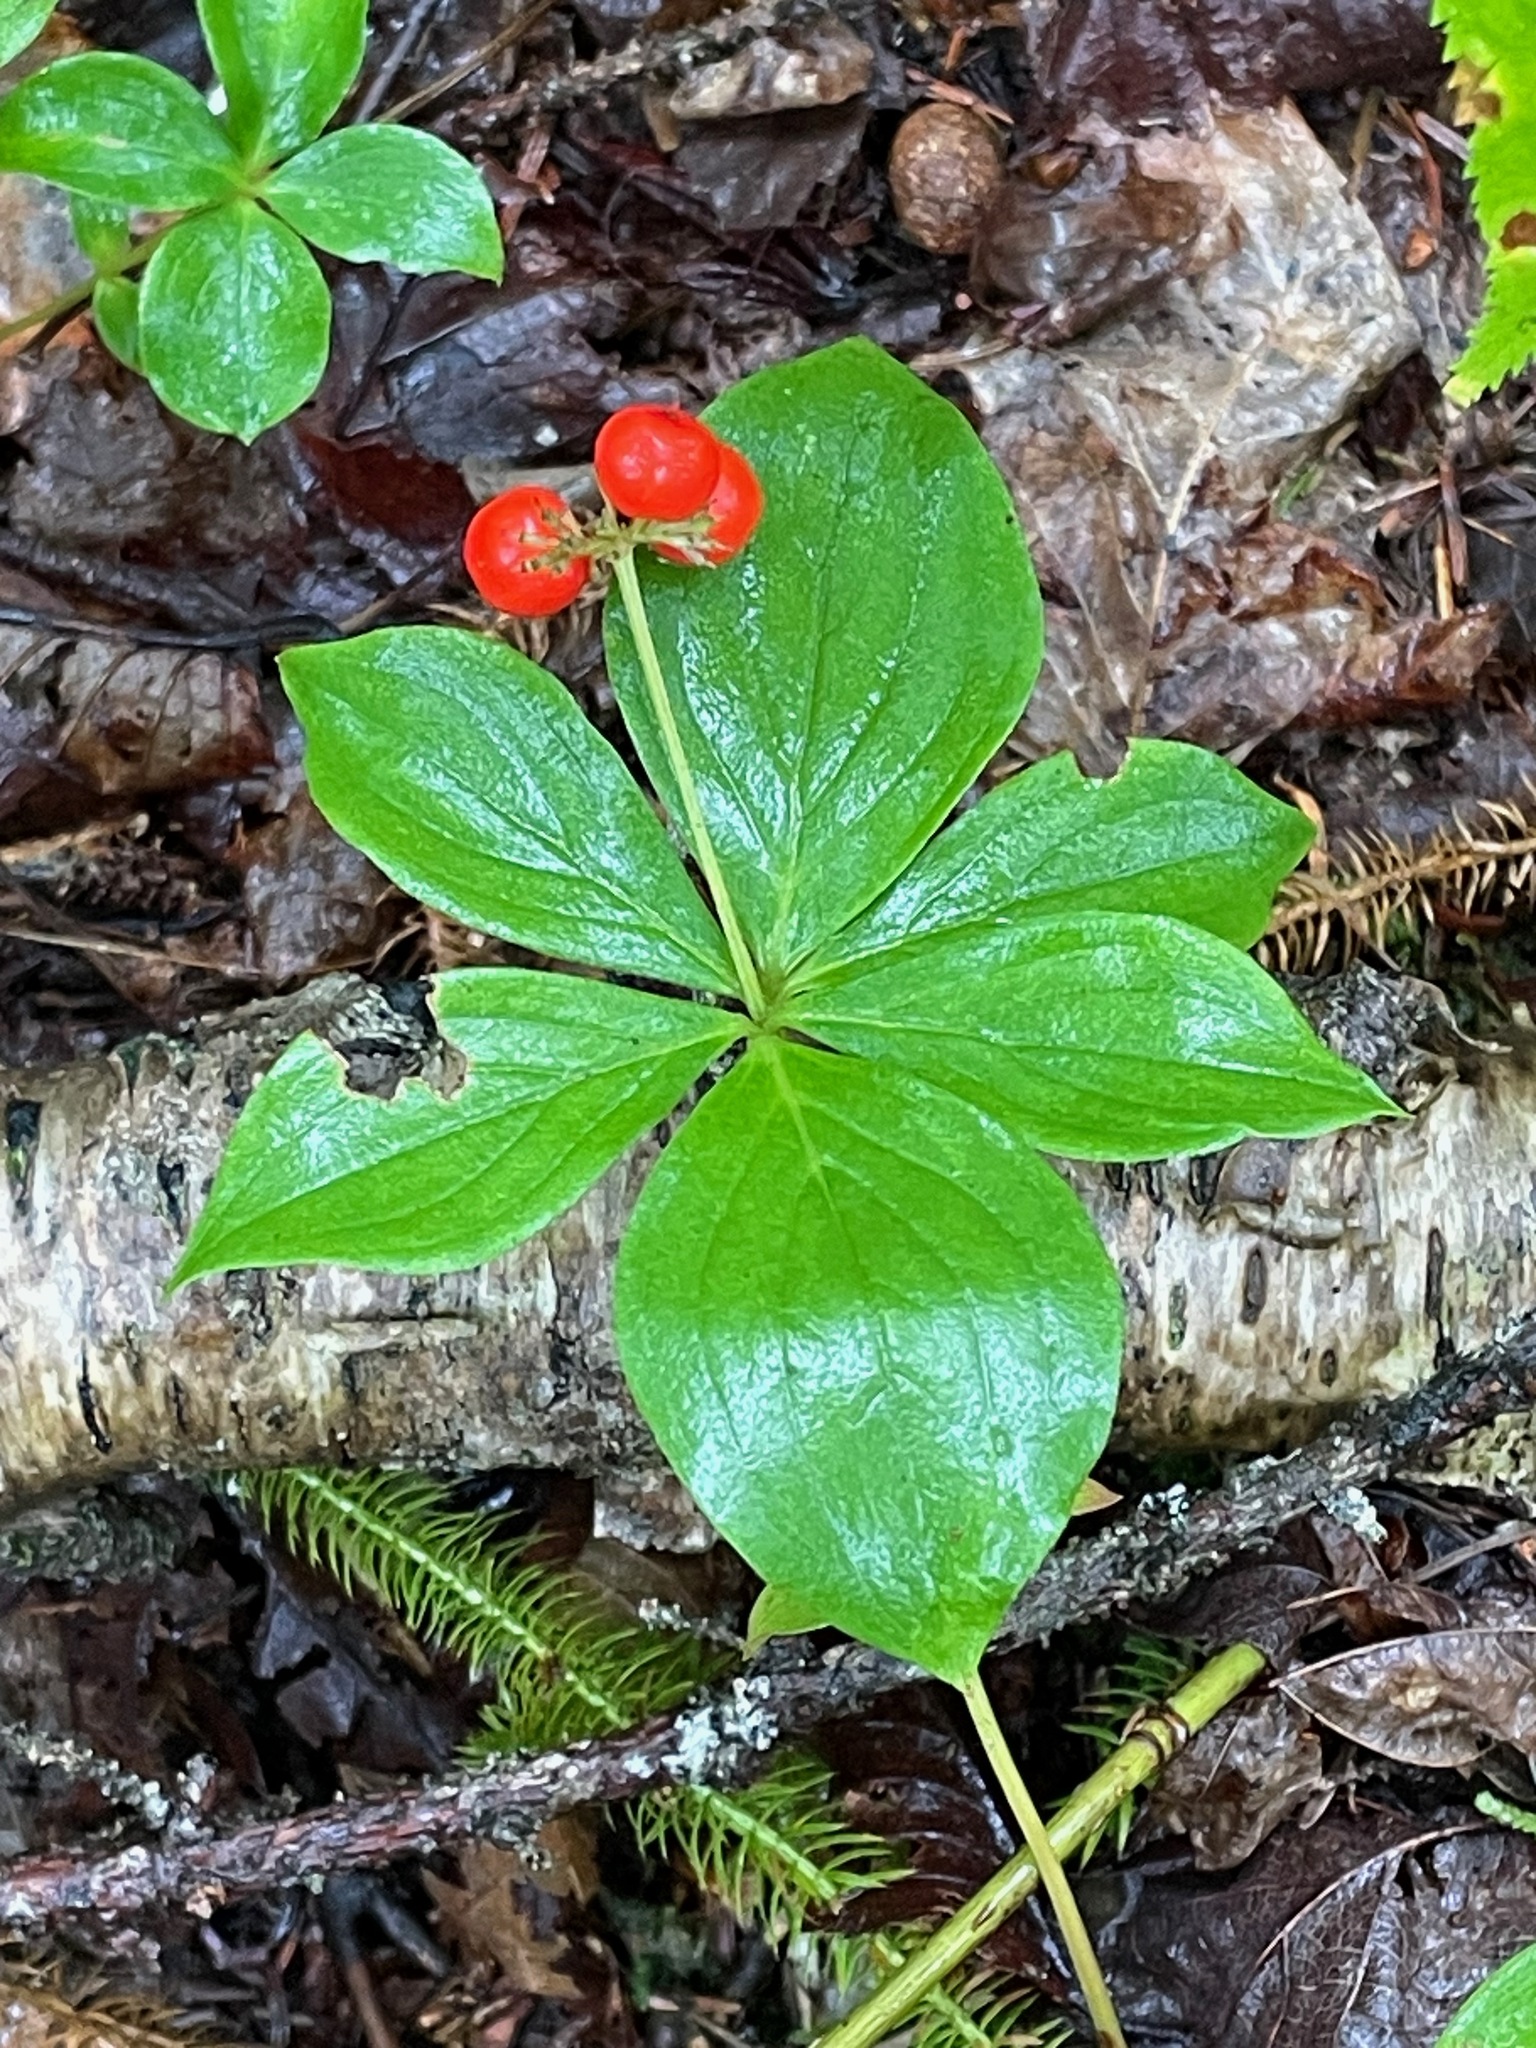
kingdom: Plantae
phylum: Tracheophyta
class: Magnoliopsida
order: Cornales
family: Cornaceae
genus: Cornus
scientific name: Cornus canadensis
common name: Creeping dogwood
